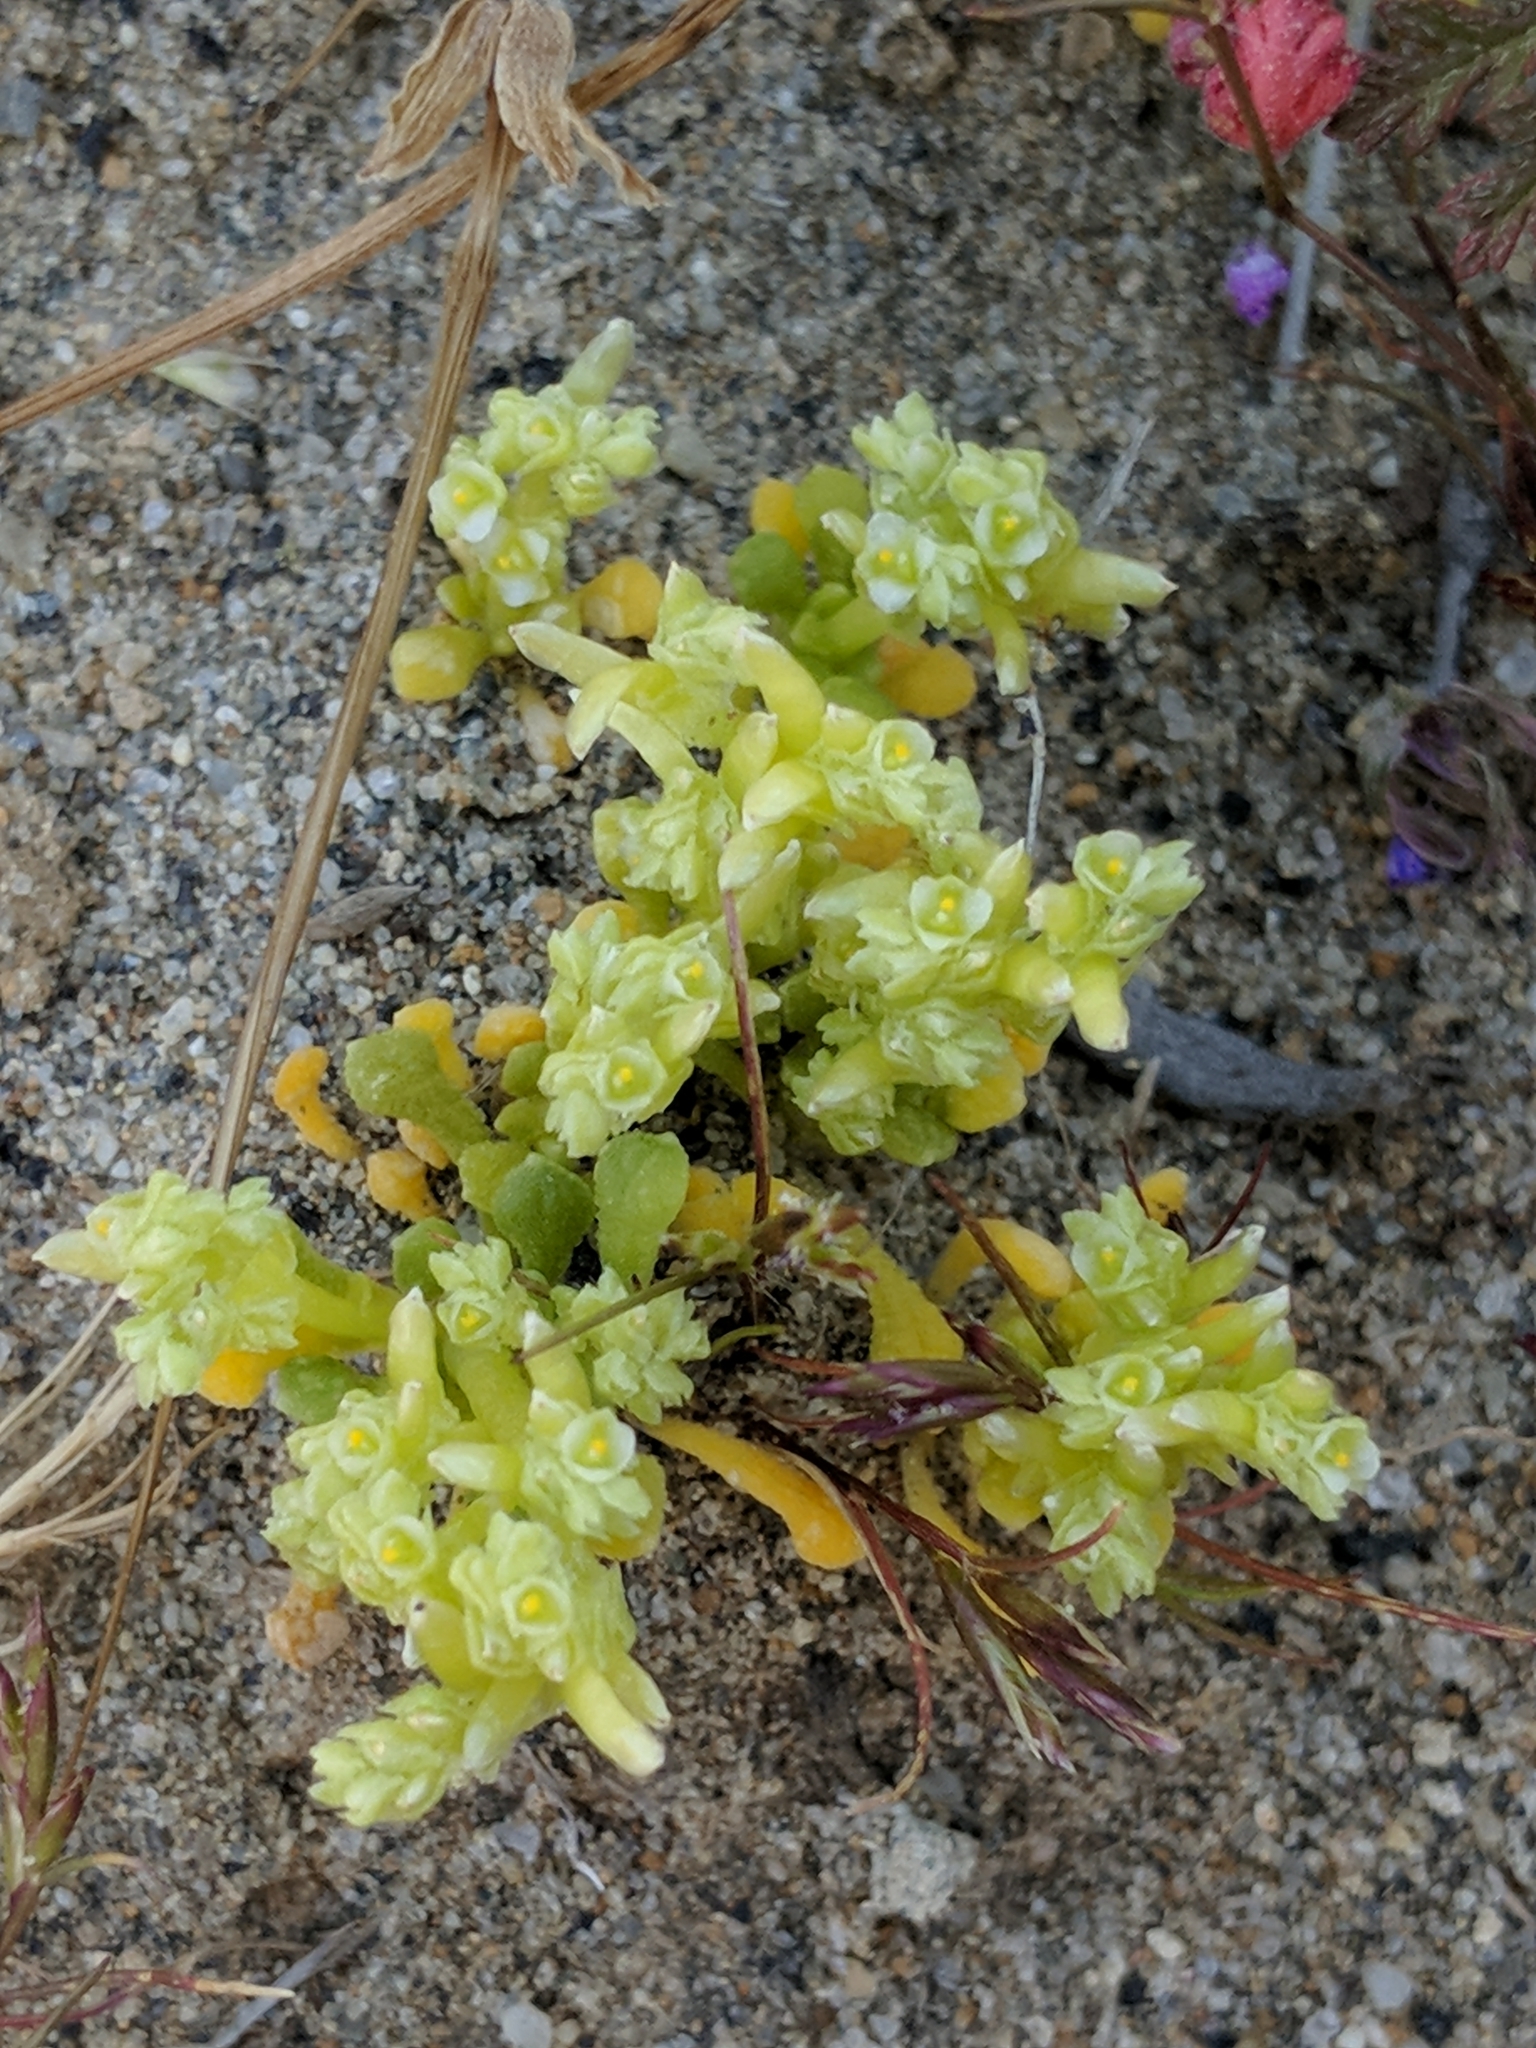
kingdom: Plantae
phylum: Tracheophyta
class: Magnoliopsida
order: Caryophyllales
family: Montiaceae
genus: Calyptridium
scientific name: Calyptridium monandrum
